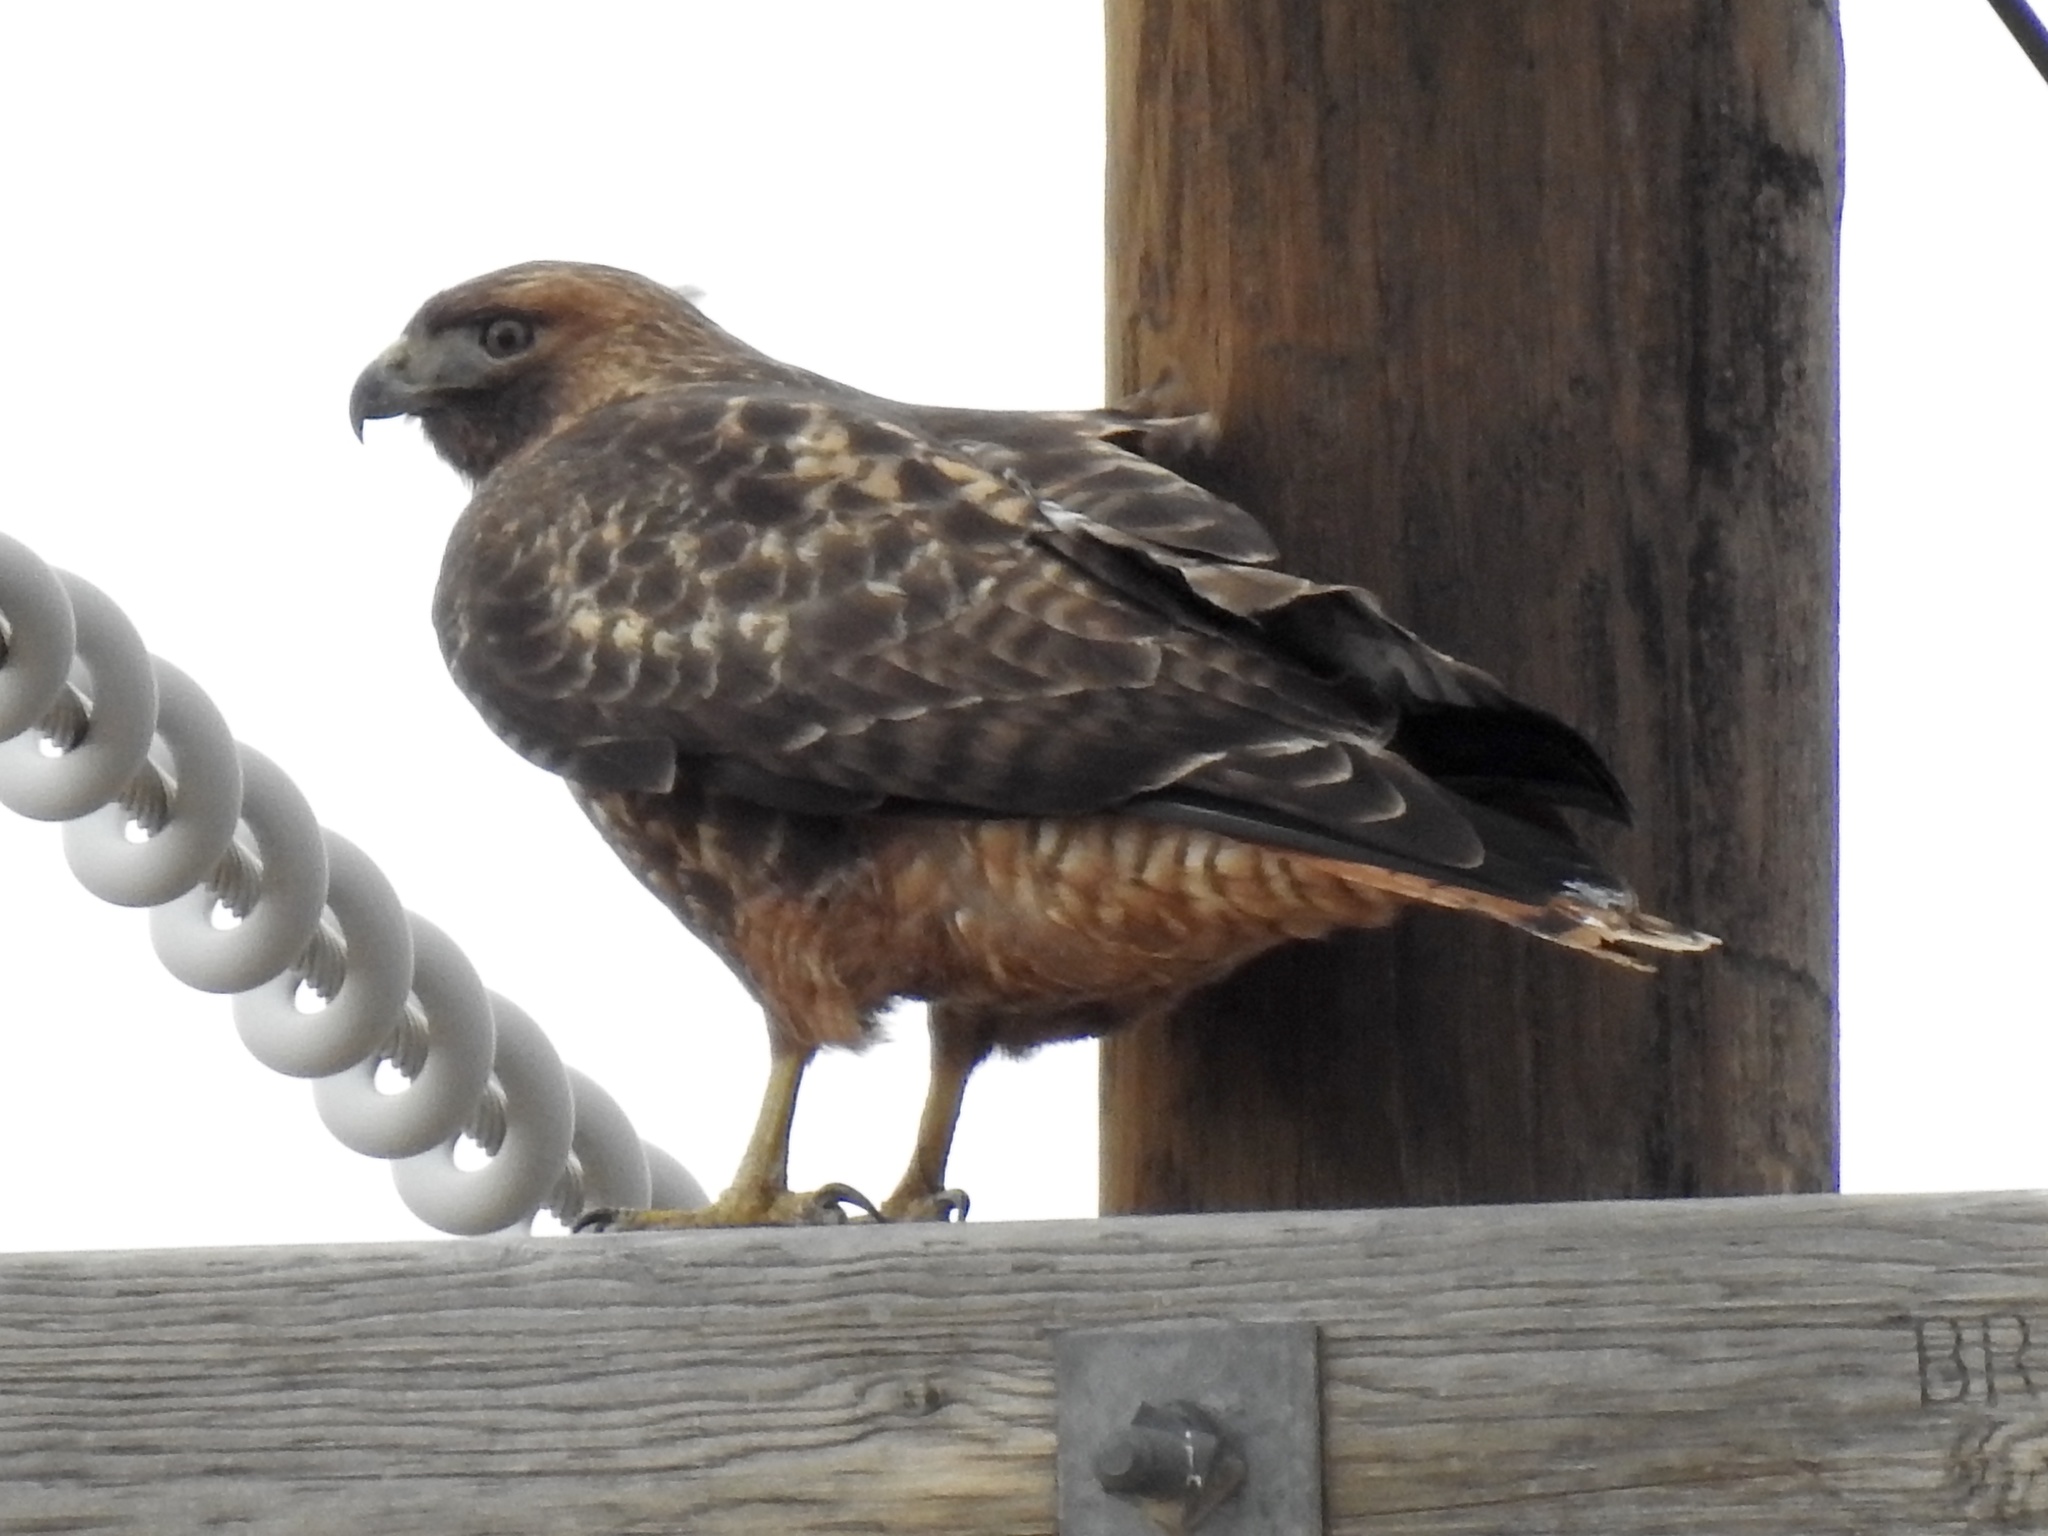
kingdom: Animalia
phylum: Chordata
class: Aves
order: Accipitriformes
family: Accipitridae
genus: Buteo
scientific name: Buteo jamaicensis
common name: Red-tailed hawk
